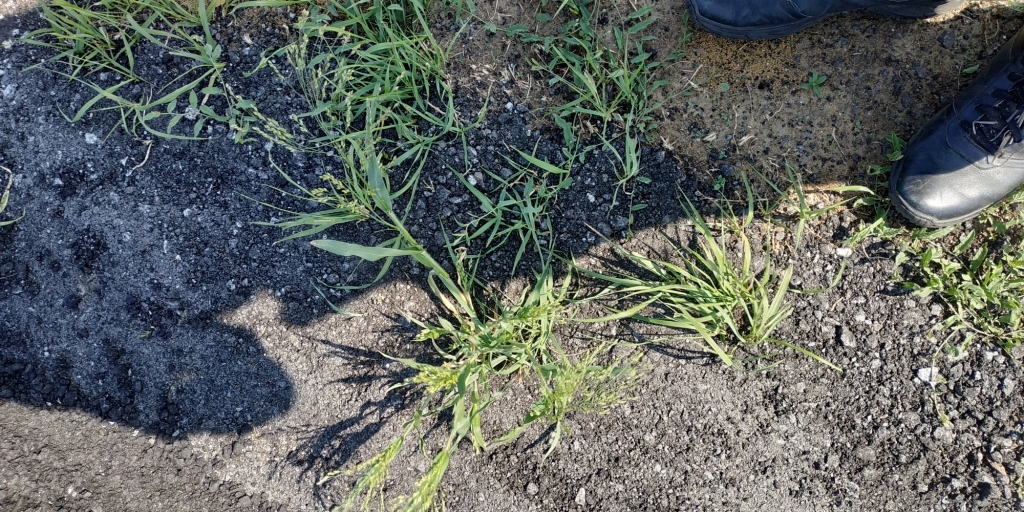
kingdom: Plantae
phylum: Tracheophyta
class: Liliopsida
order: Poales
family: Poaceae
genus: Panicum
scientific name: Panicum miliaceum
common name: Common millet
